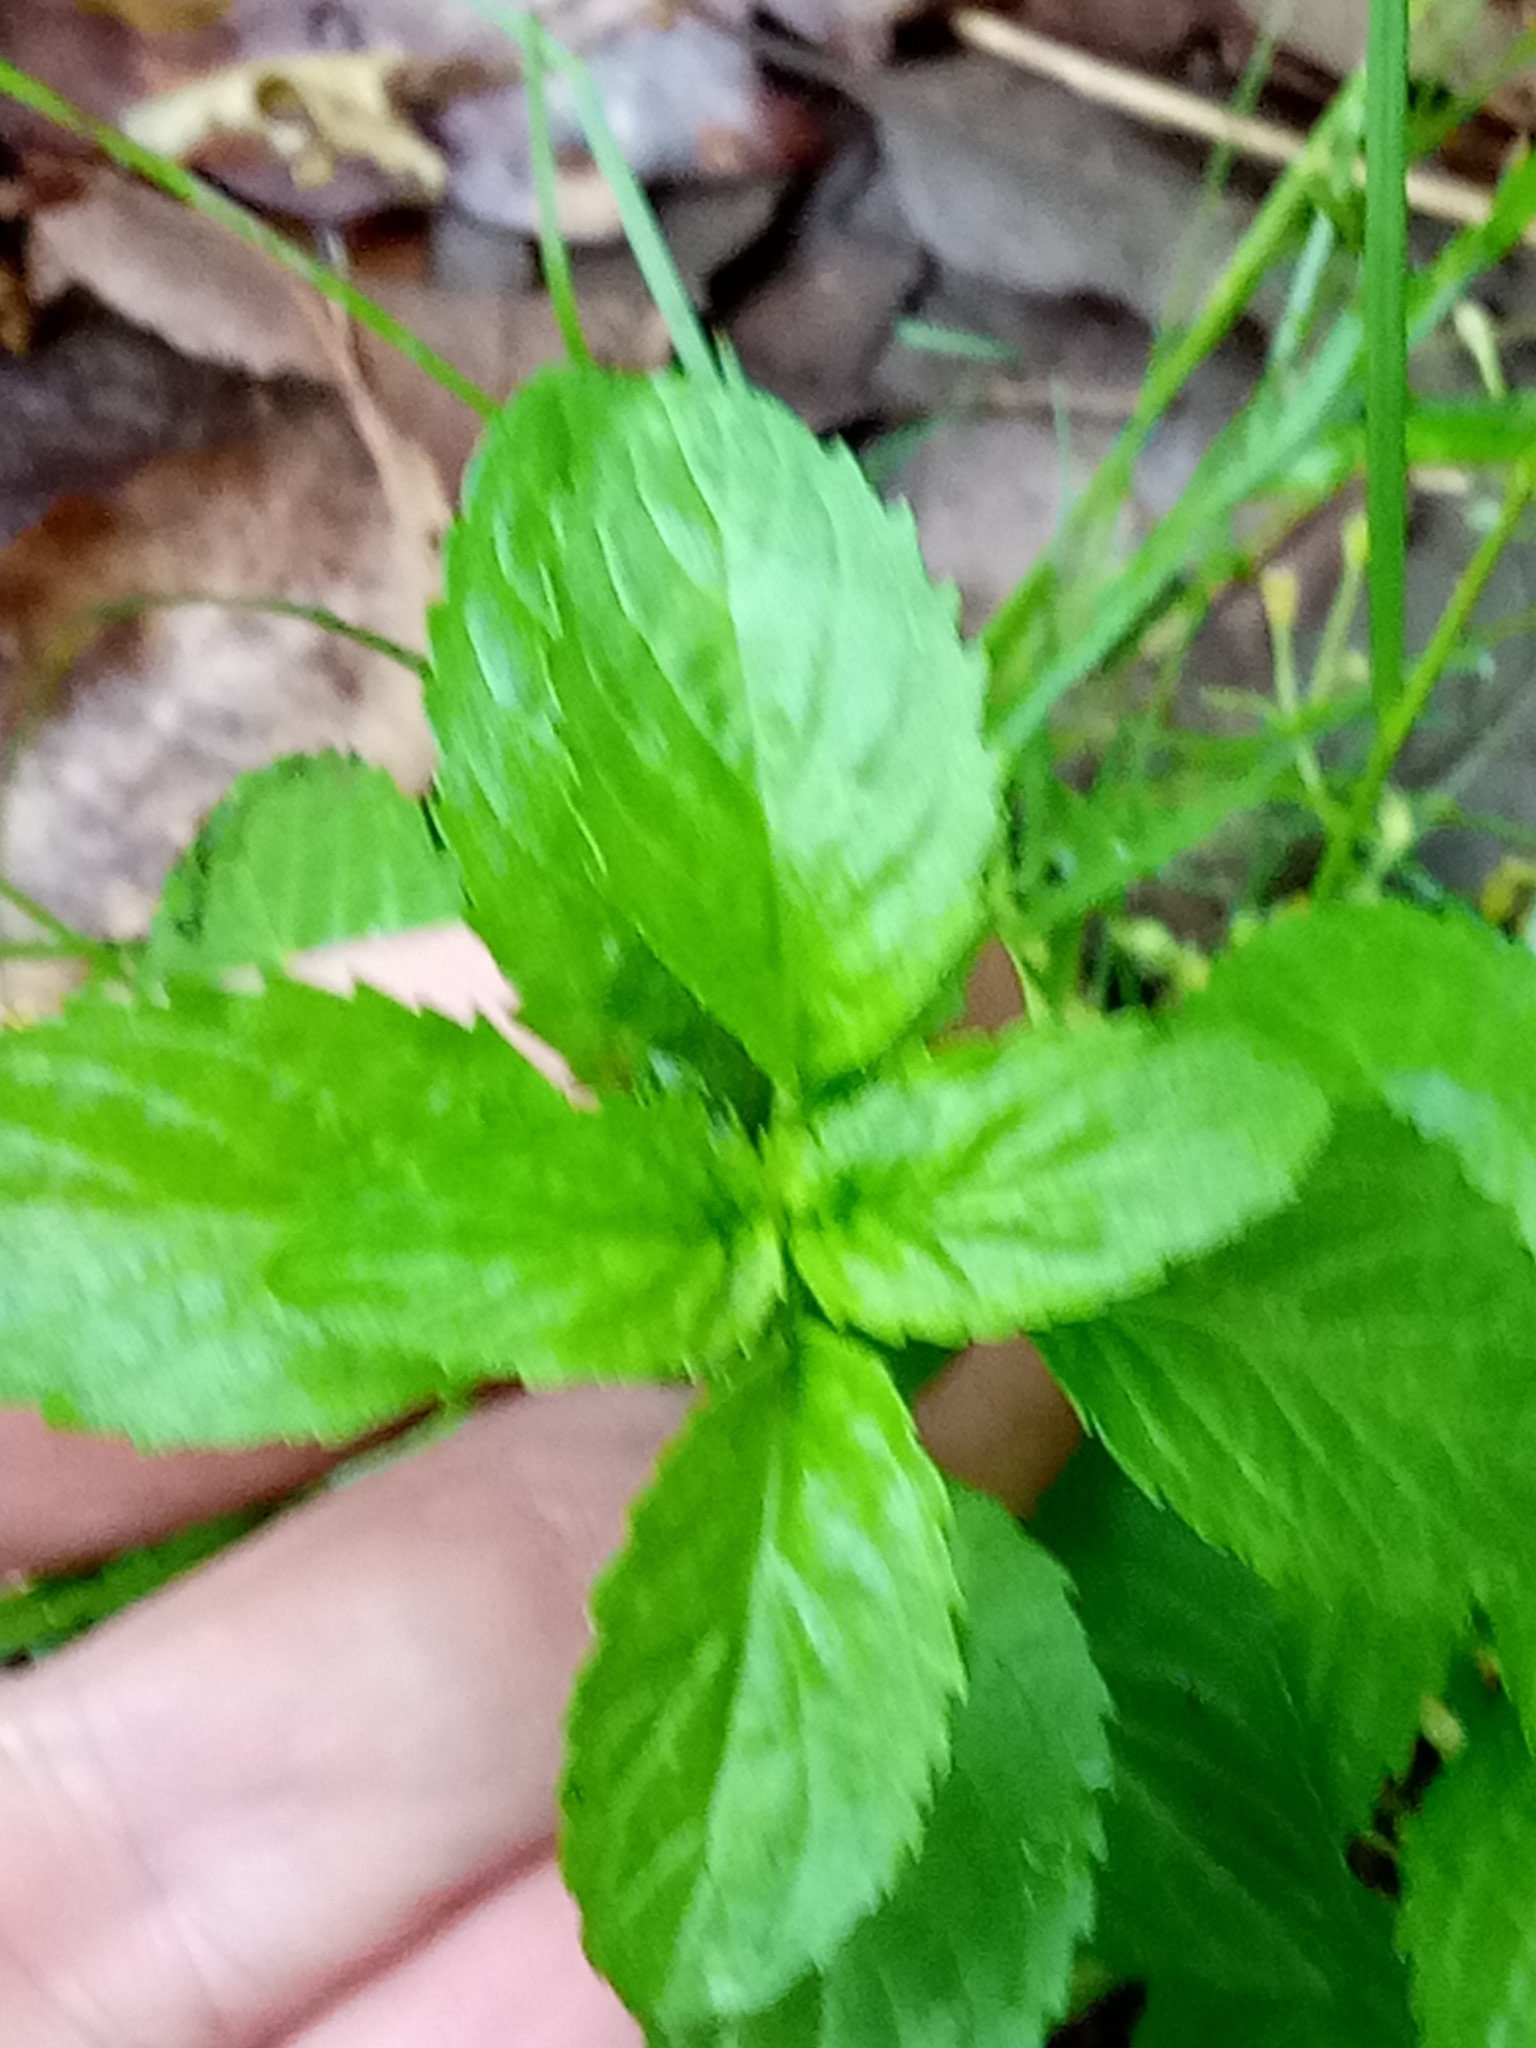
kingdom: Plantae
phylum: Tracheophyta
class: Magnoliopsida
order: Malpighiales
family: Euphorbiaceae
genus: Mercurialis
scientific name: Mercurialis annua
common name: Annual mercury
